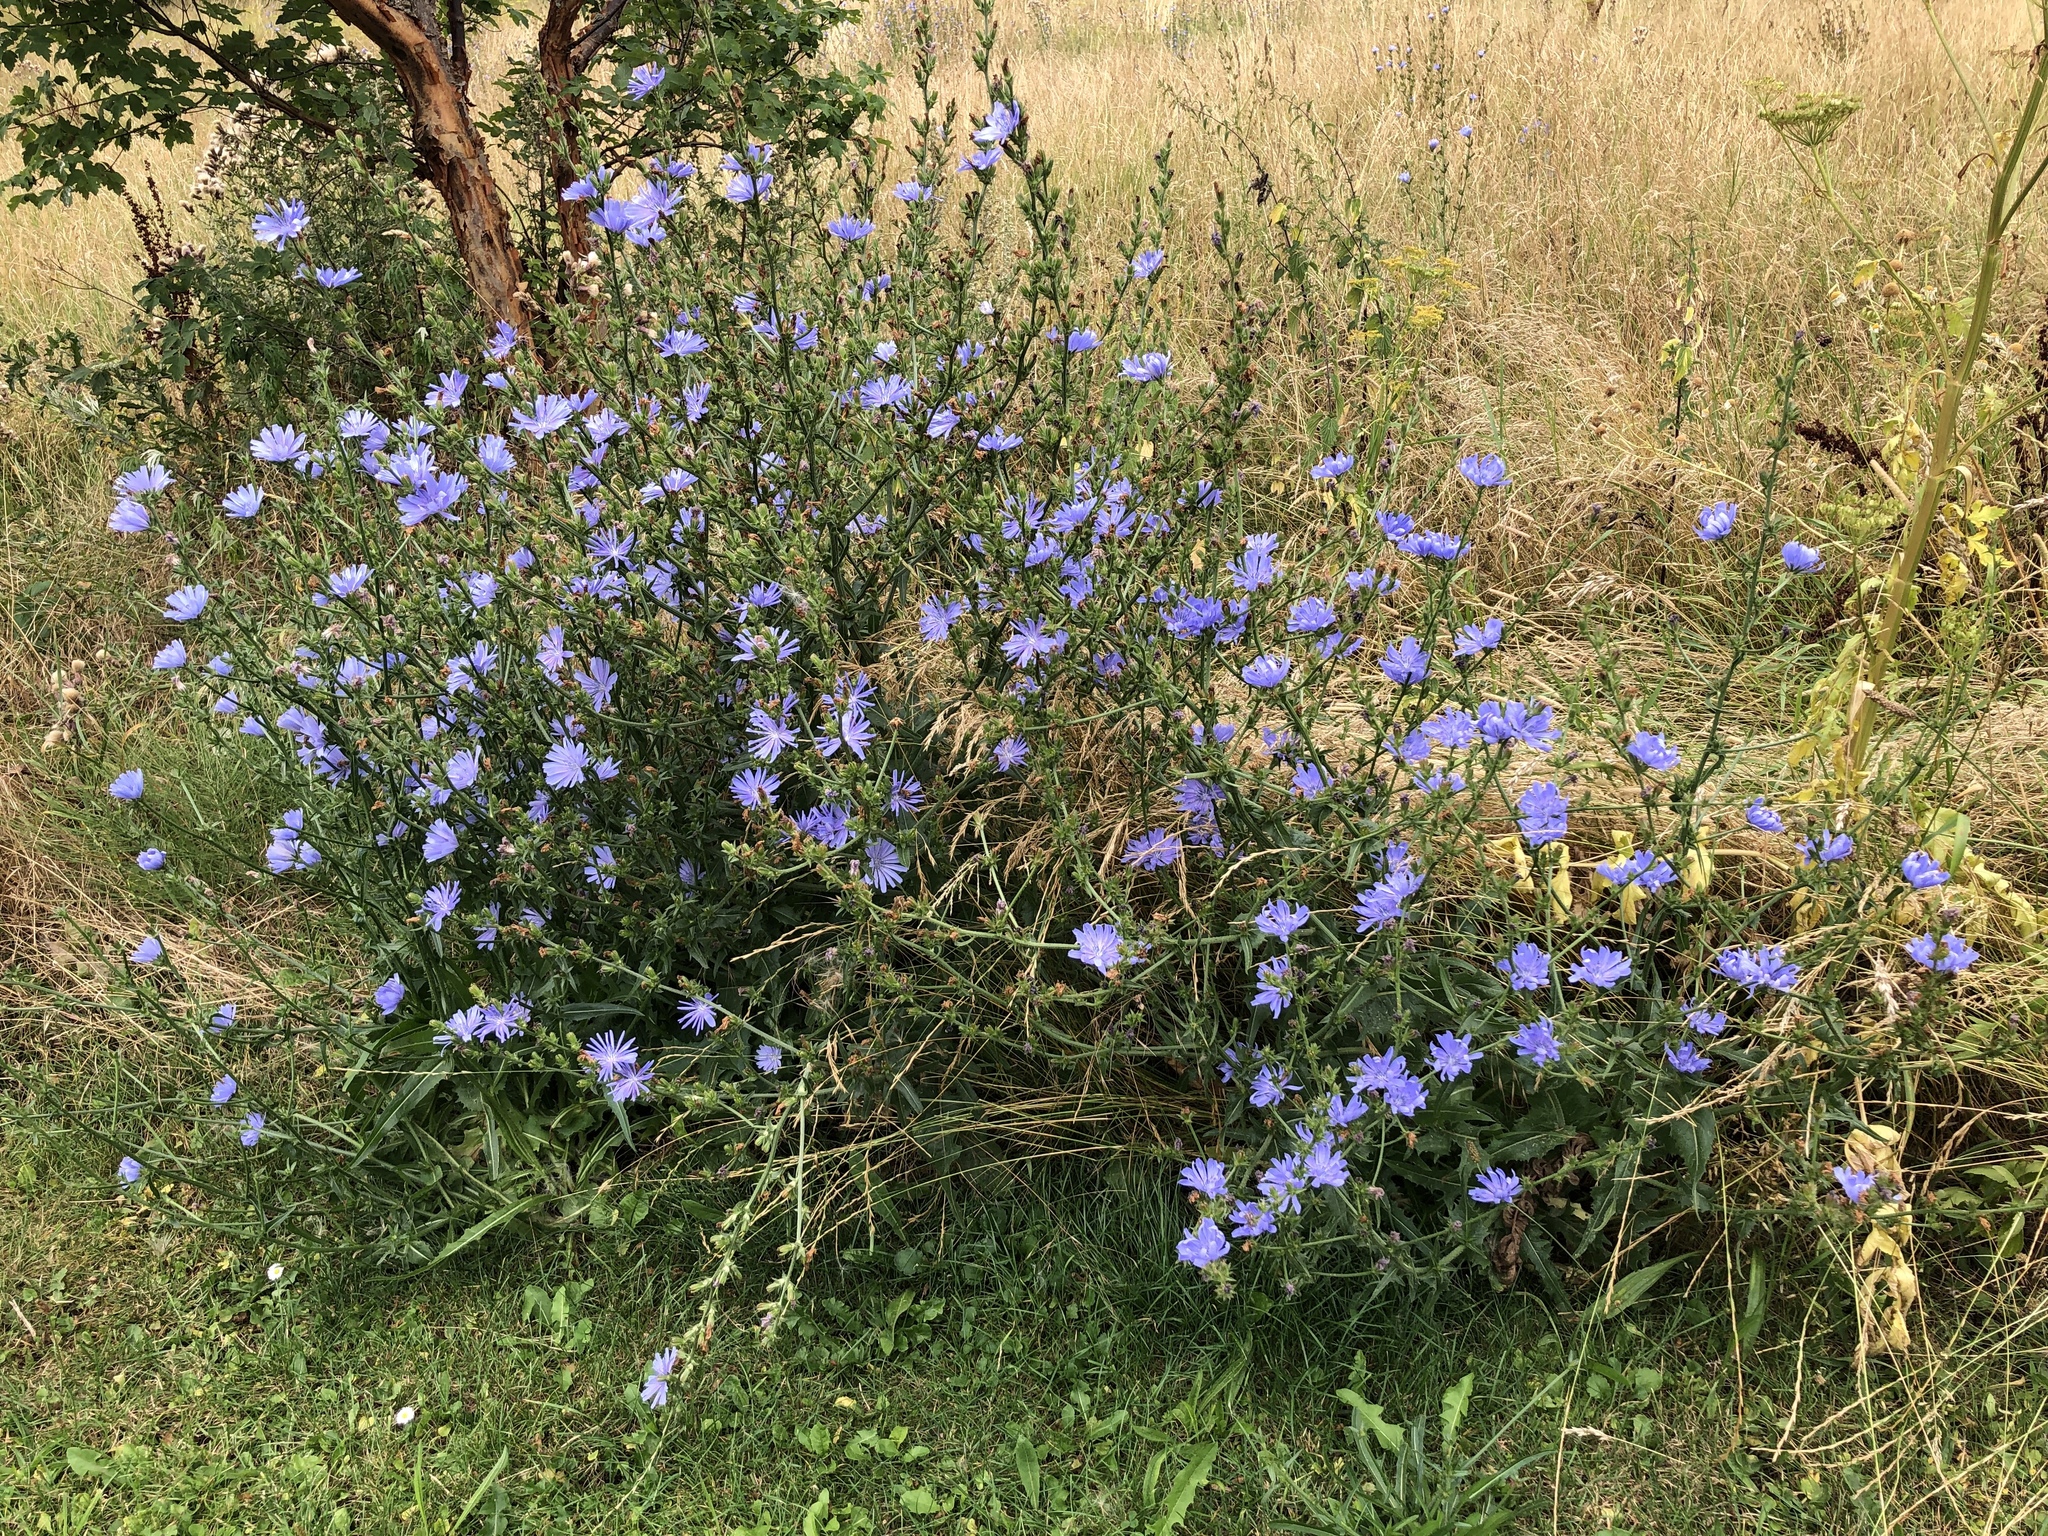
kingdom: Plantae
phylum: Tracheophyta
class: Magnoliopsida
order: Asterales
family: Asteraceae
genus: Cichorium
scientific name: Cichorium intybus
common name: Chicory
